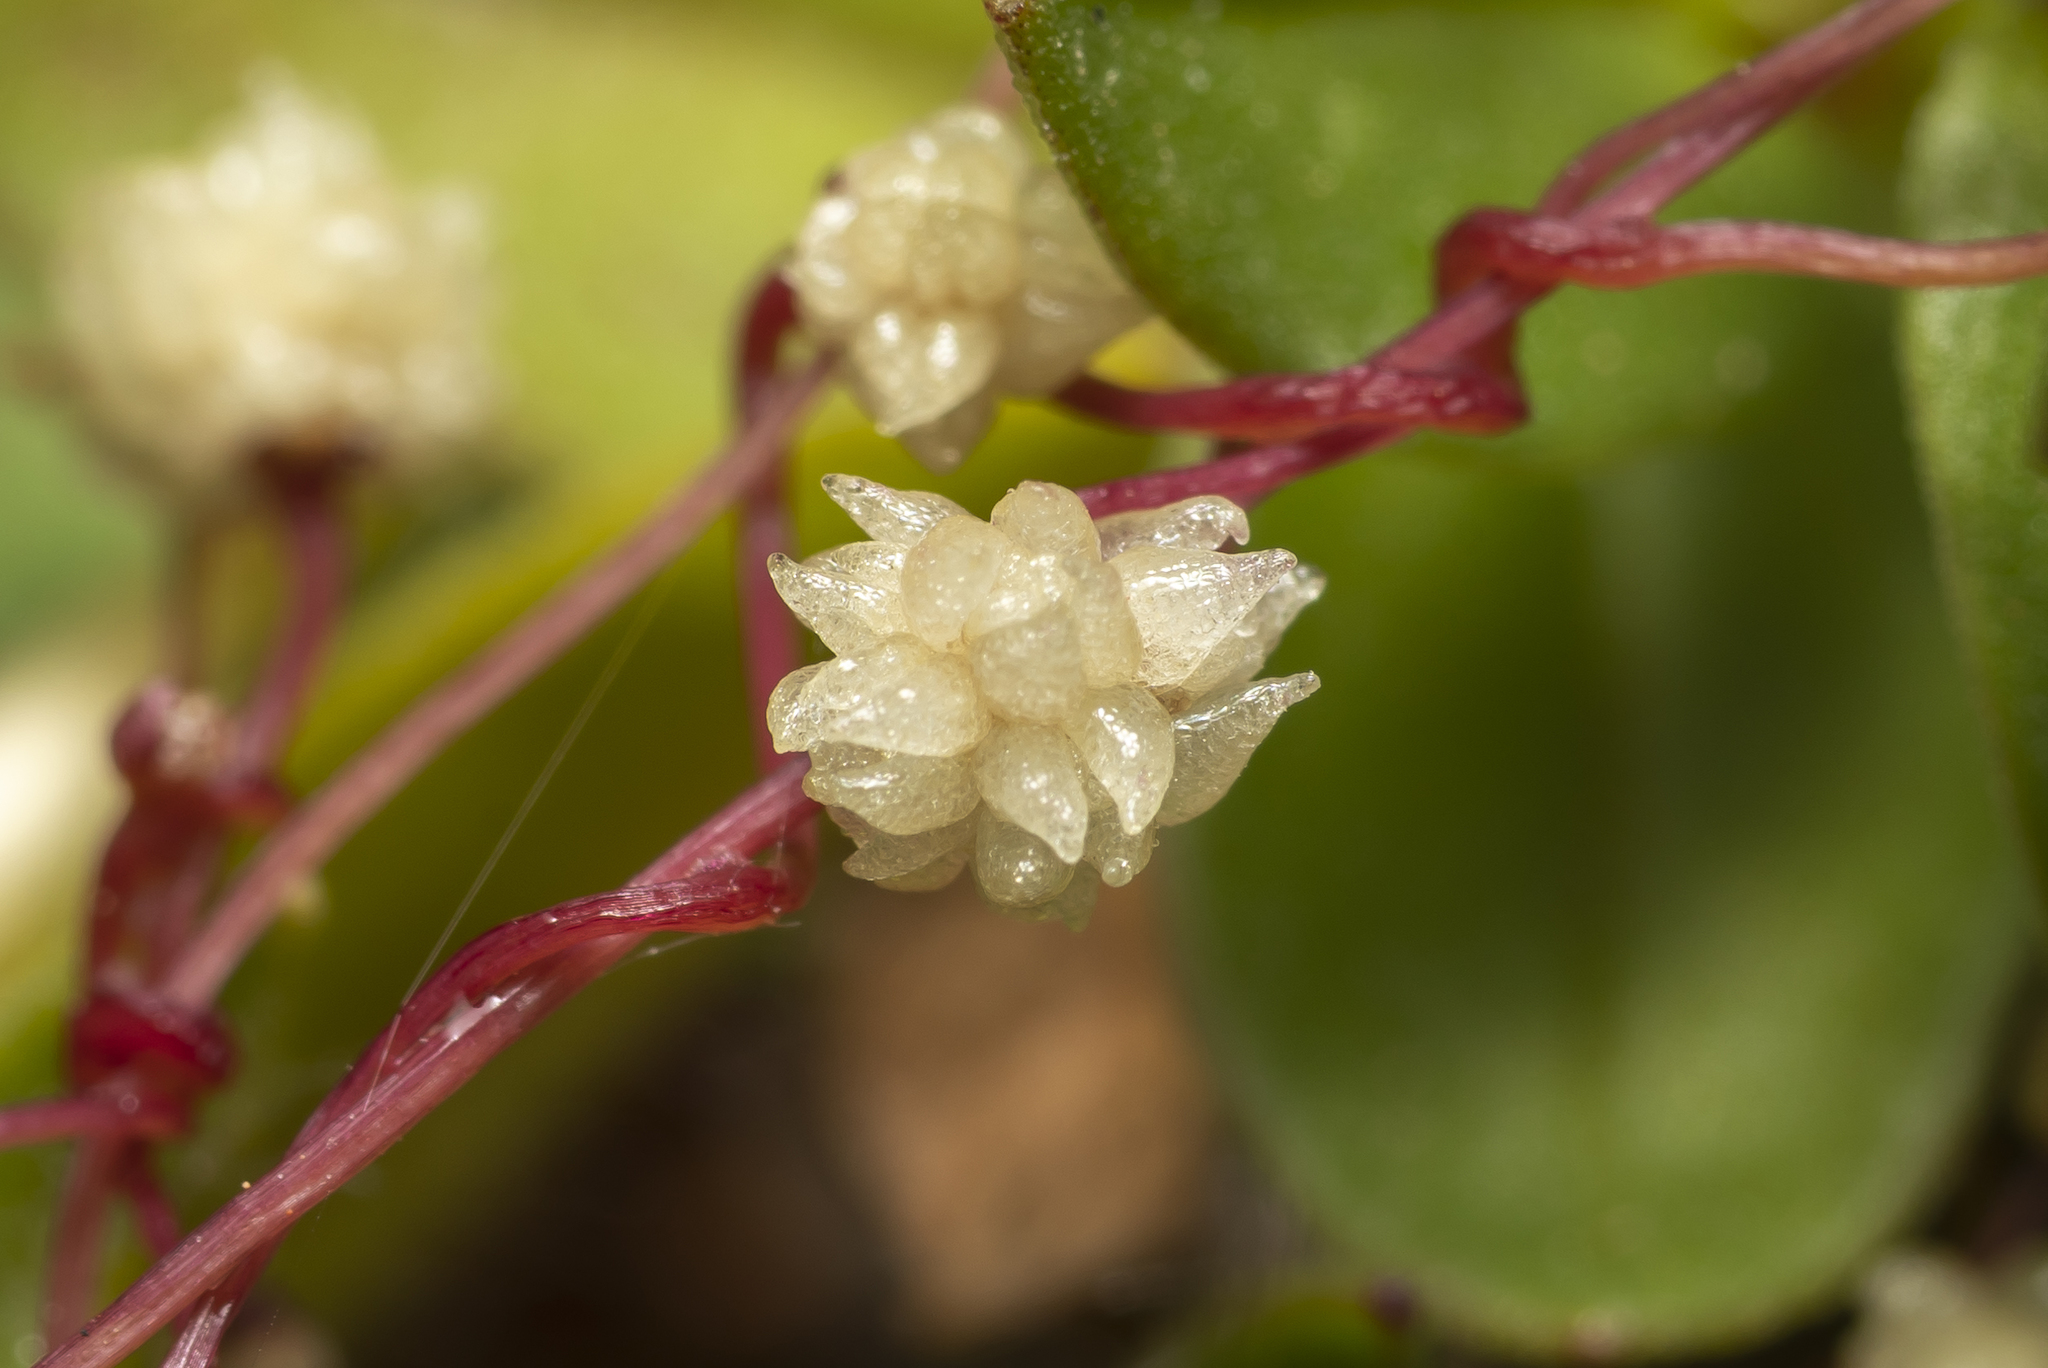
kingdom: Plantae
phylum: Tracheophyta
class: Magnoliopsida
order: Solanales
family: Convolvulaceae
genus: Cuscuta
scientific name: Cuscuta palaestina
